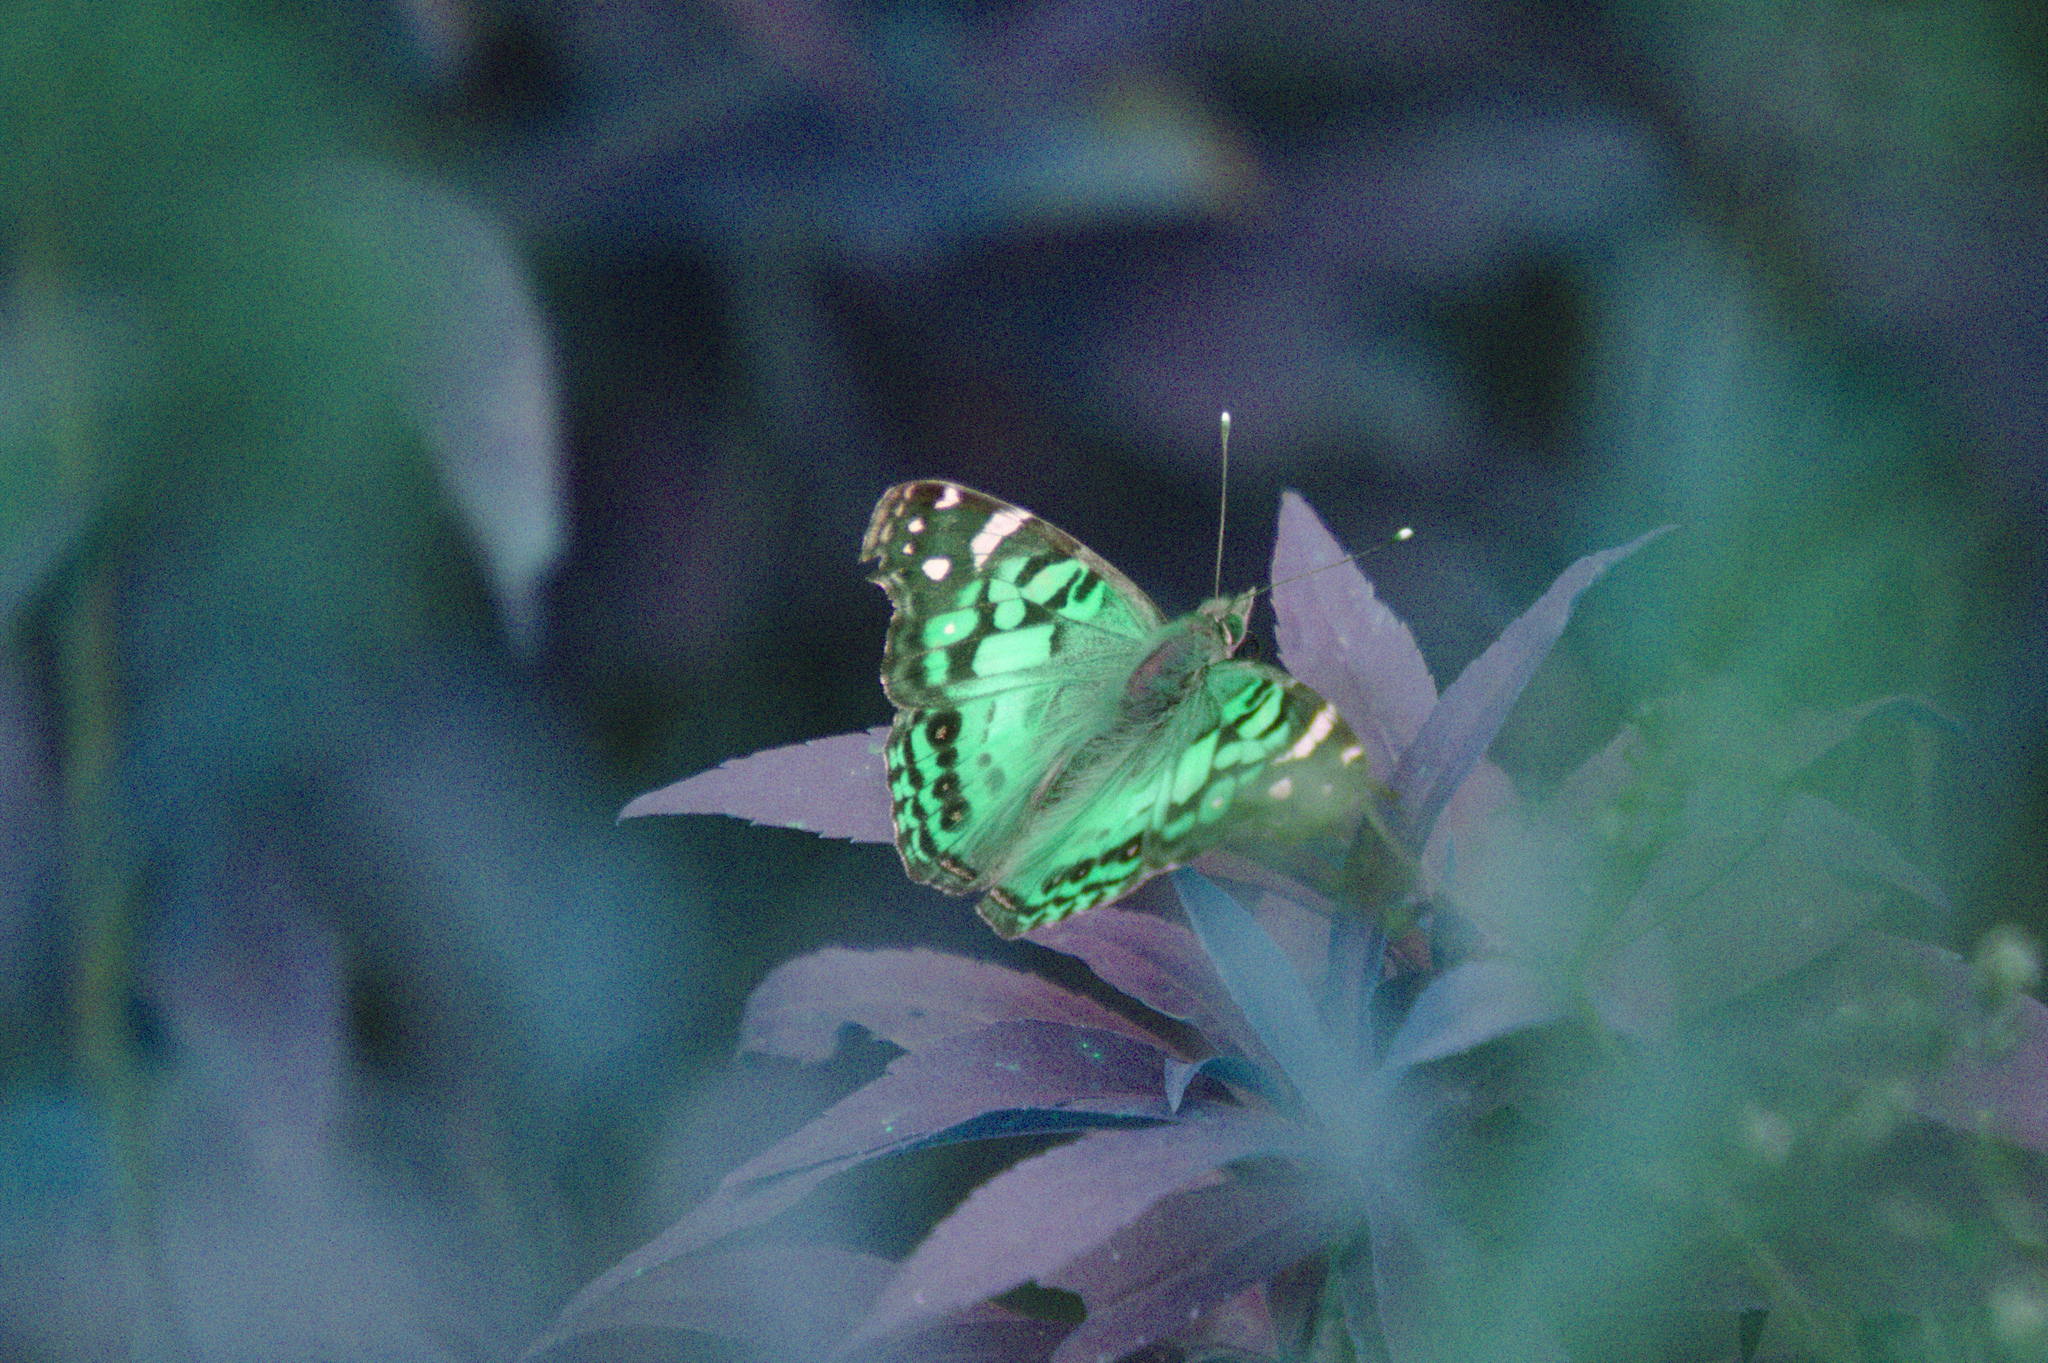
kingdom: Animalia
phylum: Arthropoda
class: Insecta
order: Lepidoptera
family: Nymphalidae
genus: Vanessa
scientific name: Vanessa virginiensis
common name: American lady
